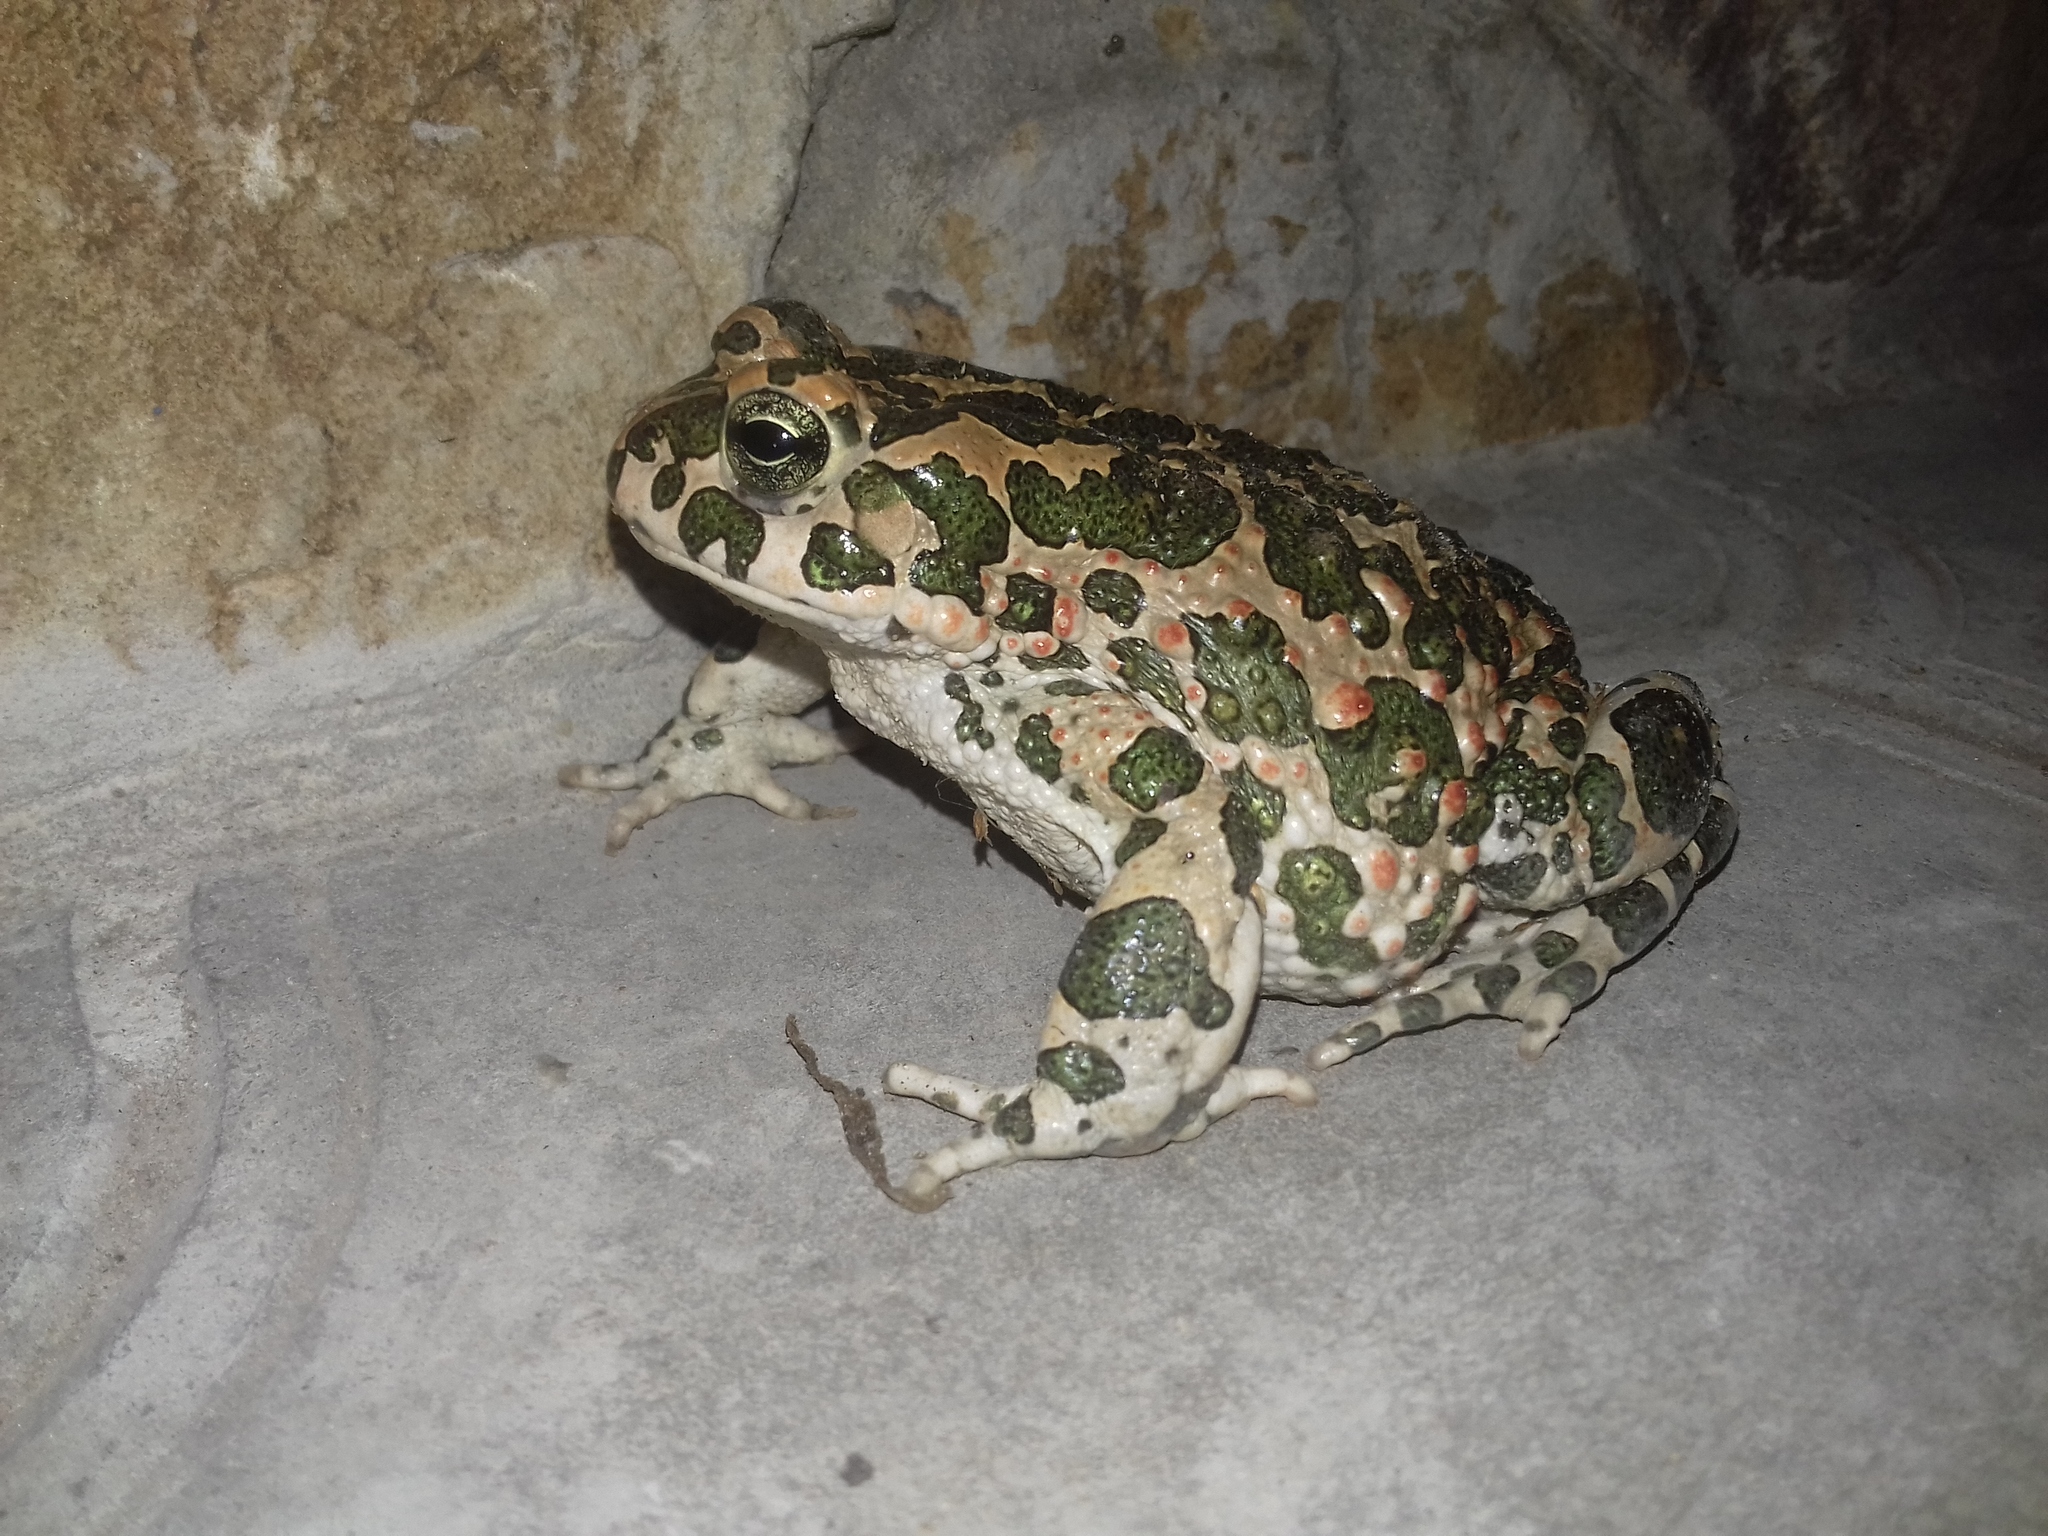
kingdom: Animalia
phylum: Chordata
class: Amphibia
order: Anura
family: Bufonidae
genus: Bufotes
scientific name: Bufotes viridis
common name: European green toad
